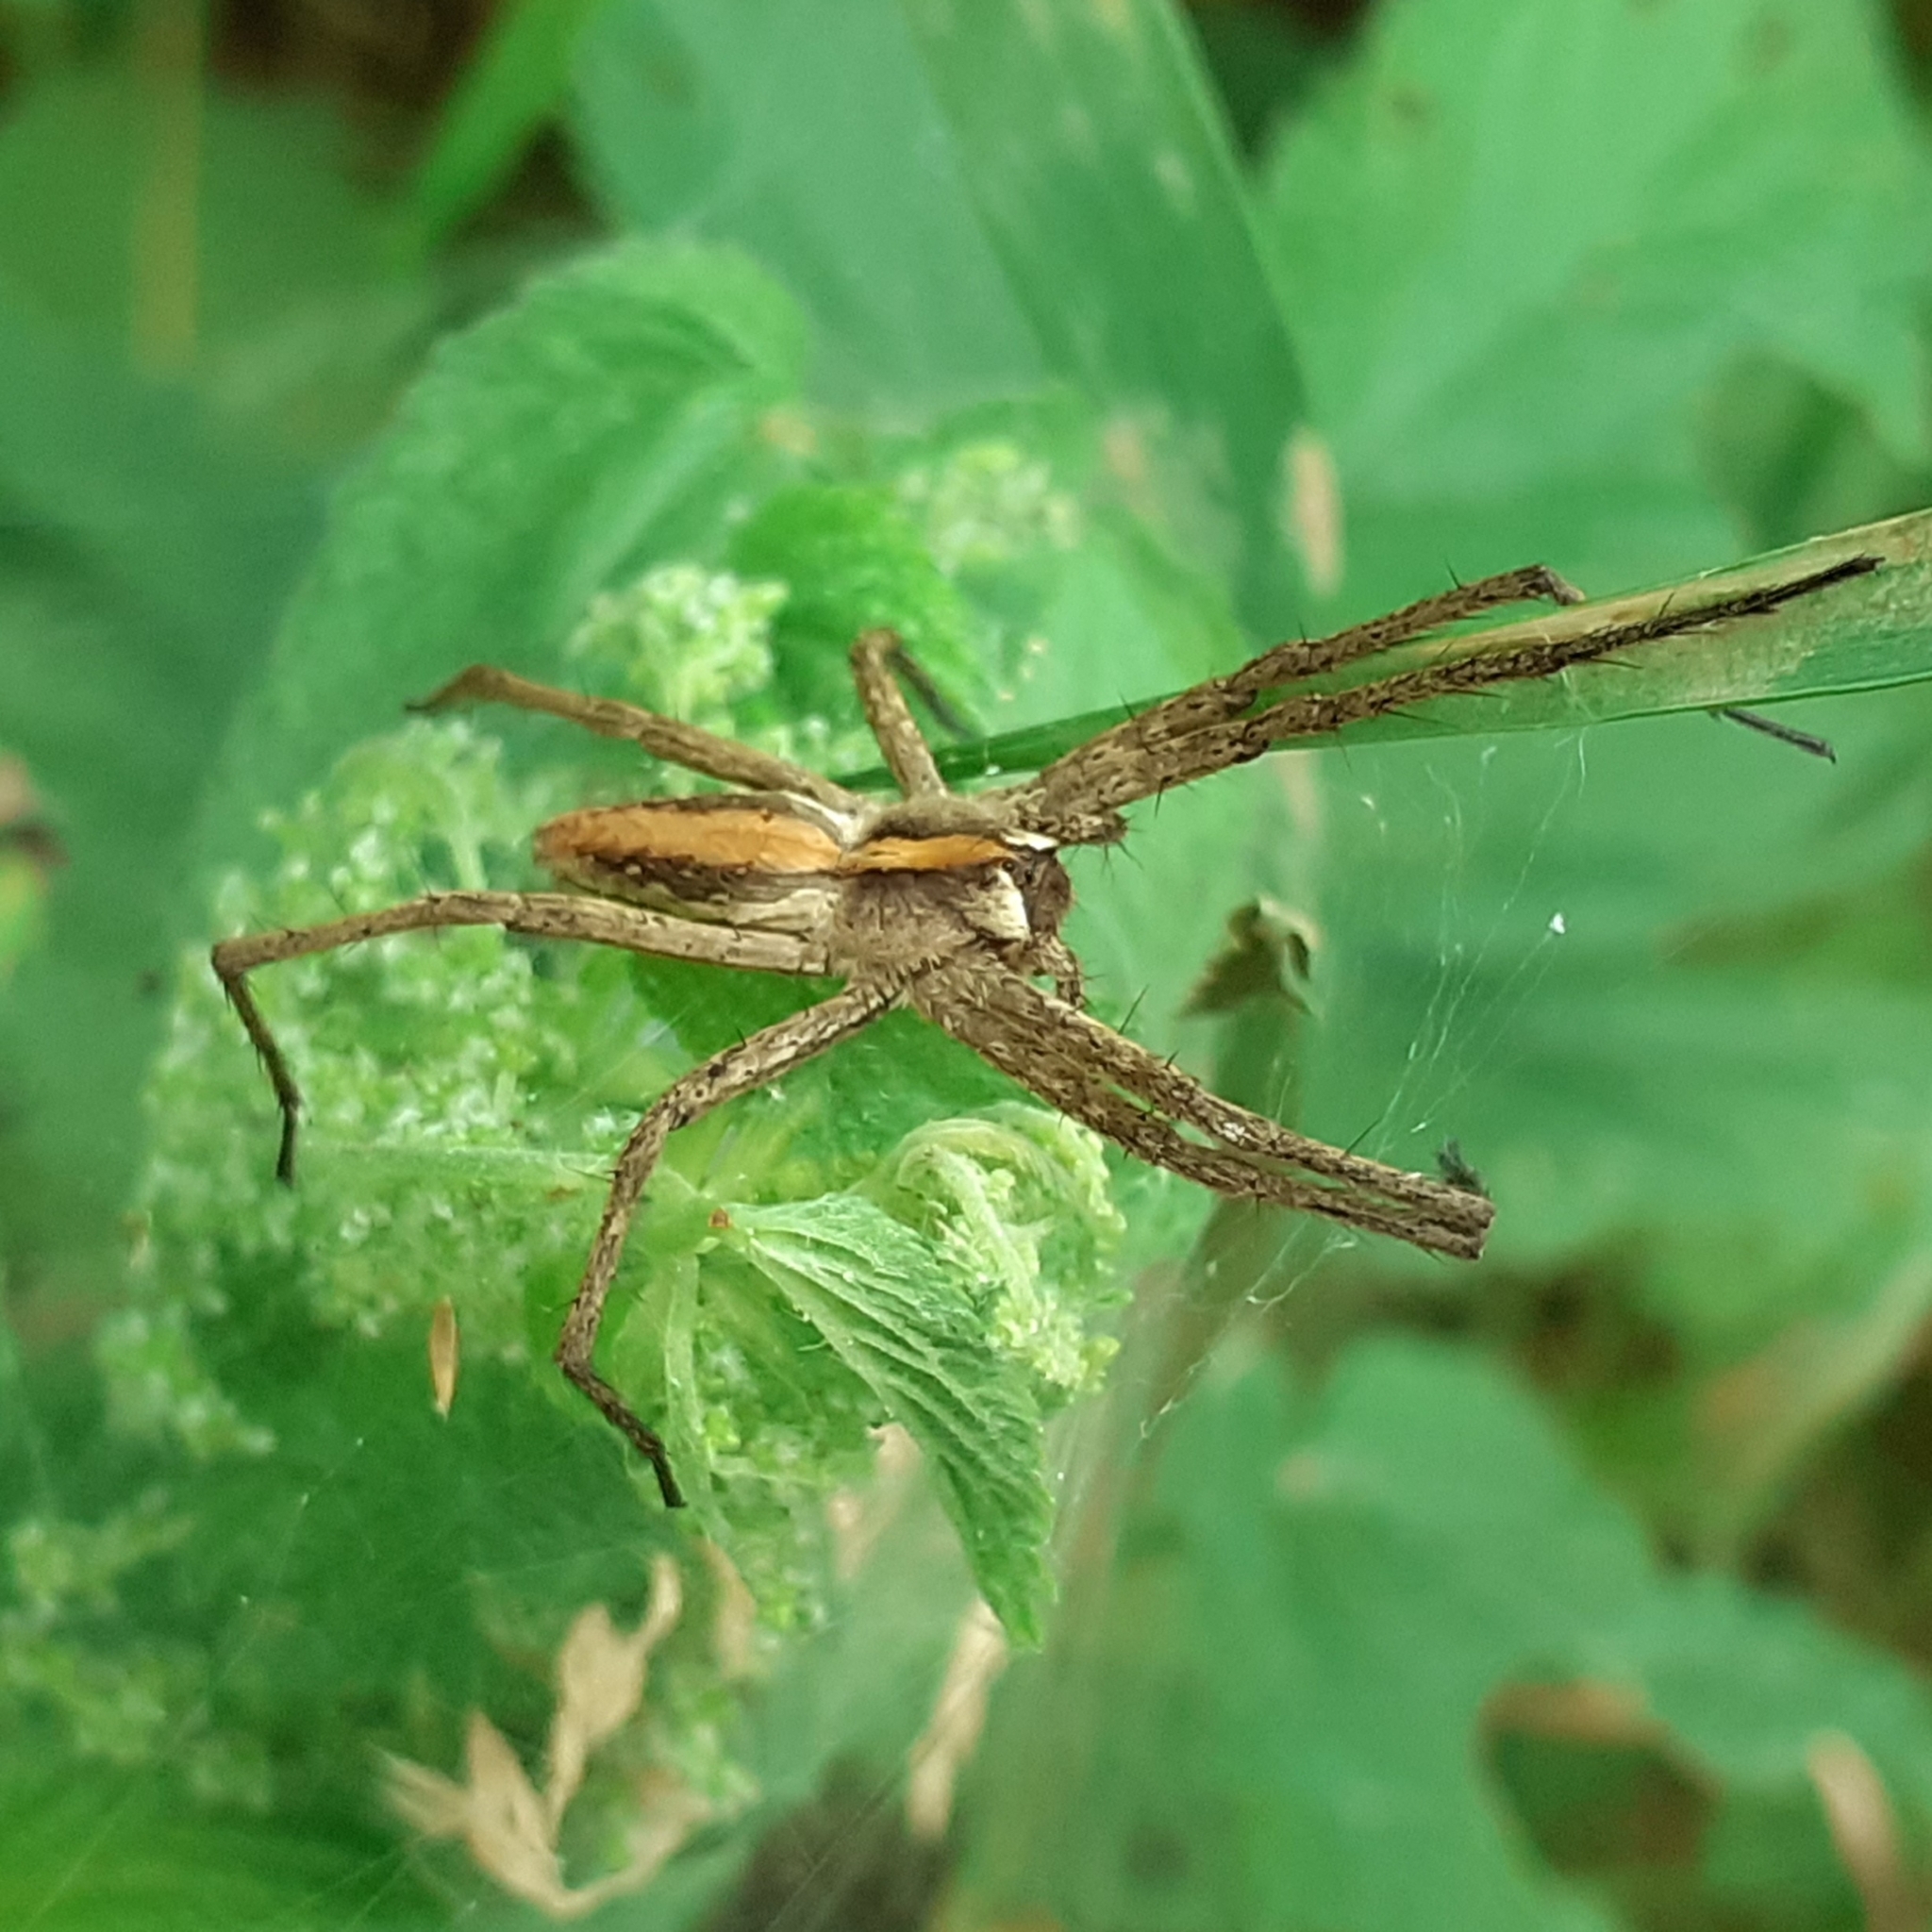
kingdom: Animalia
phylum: Arthropoda
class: Arachnida
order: Araneae
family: Pisauridae
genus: Pisaura
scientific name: Pisaura mirabilis
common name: Tent spider
